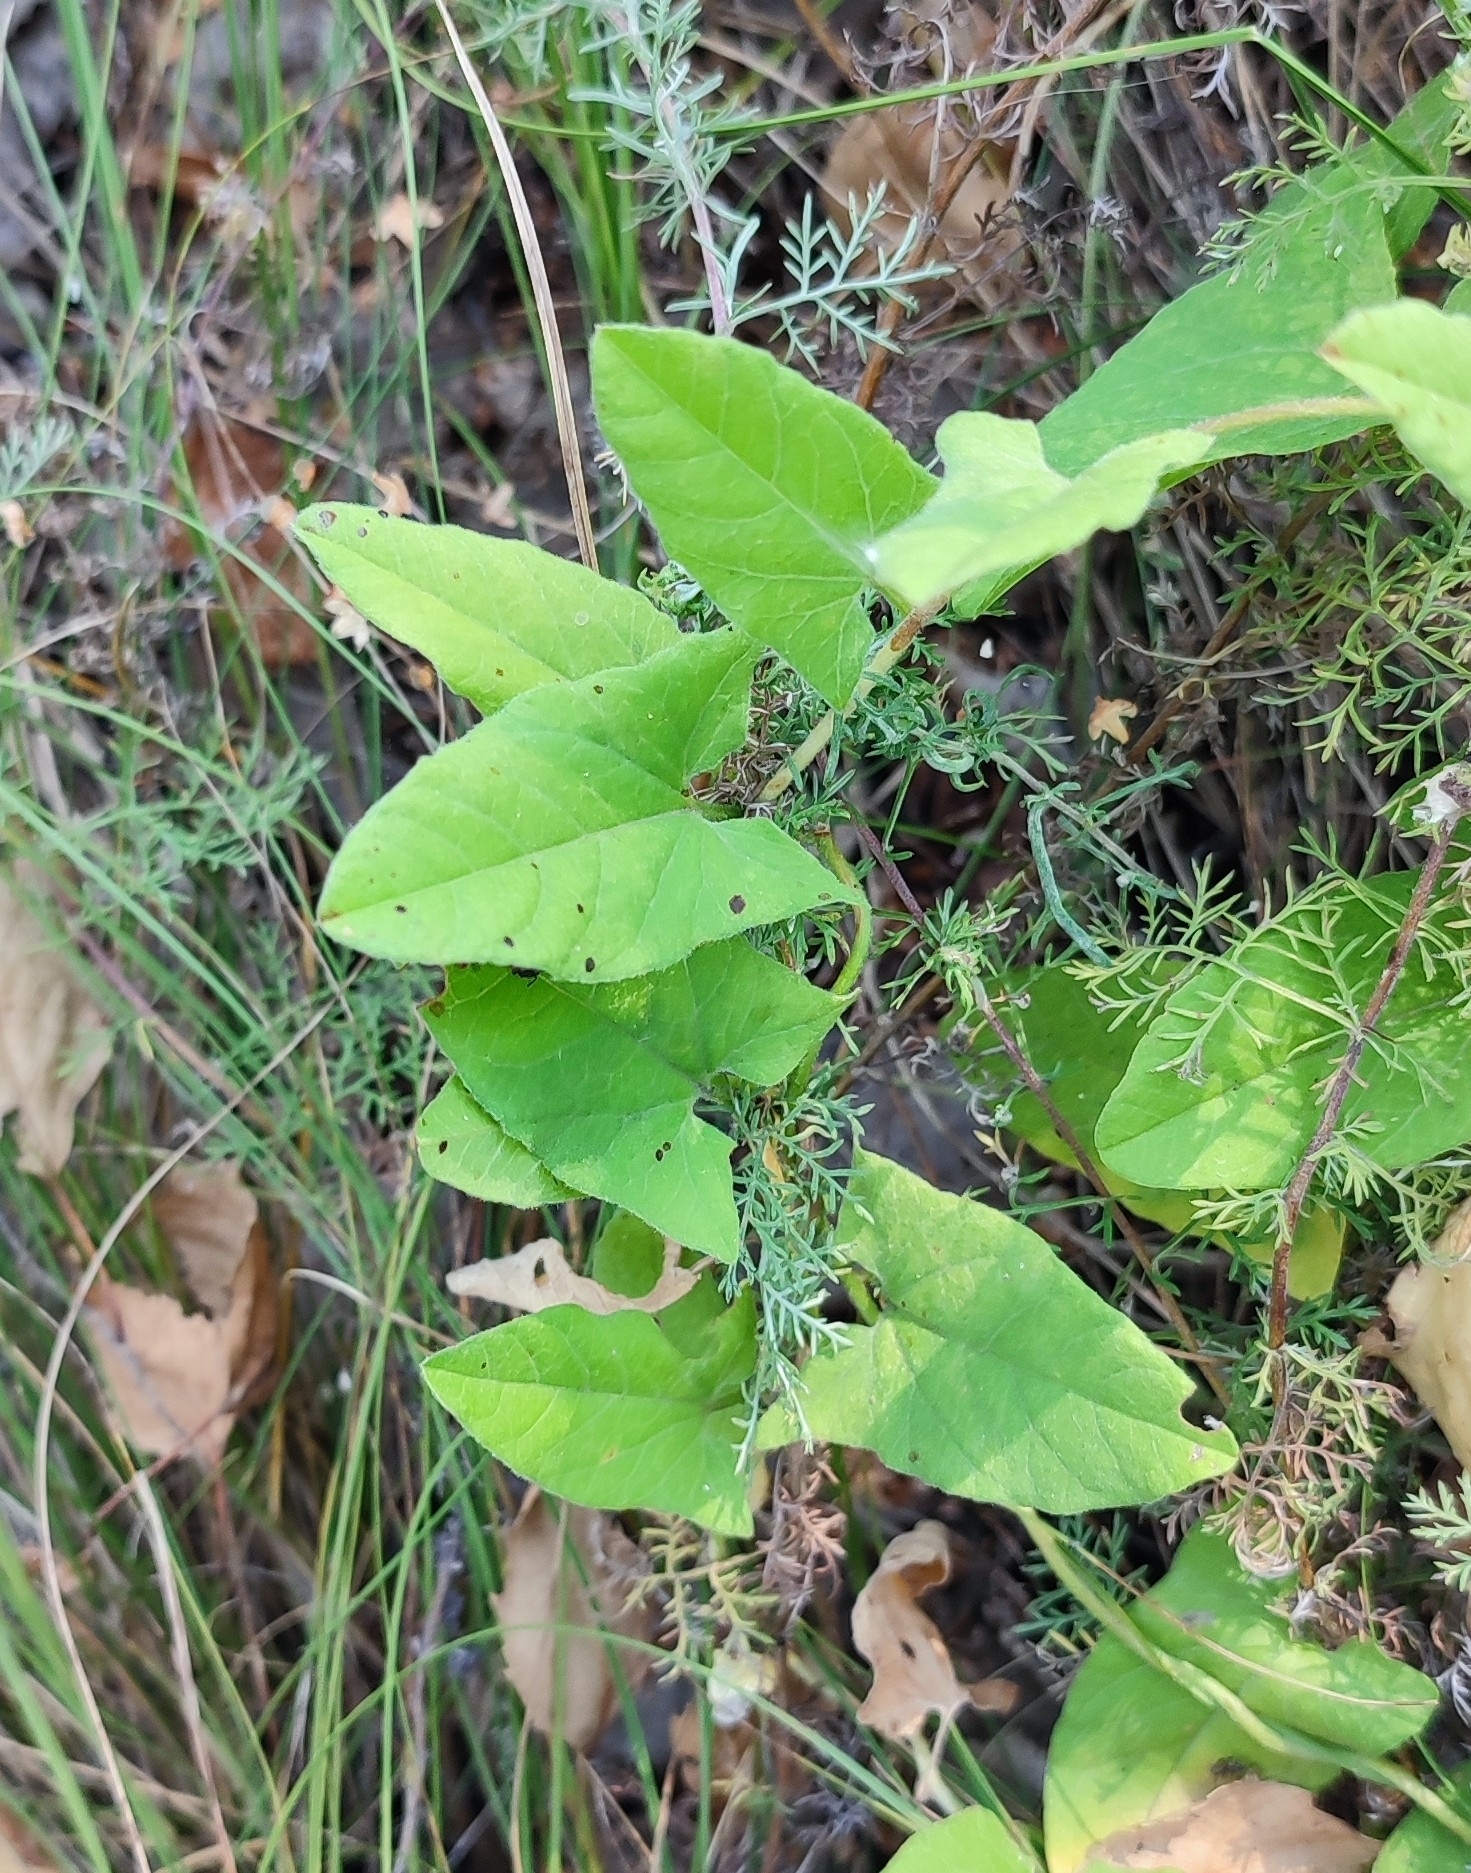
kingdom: Plantae
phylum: Tracheophyta
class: Magnoliopsida
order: Solanales
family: Convolvulaceae
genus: Convolvulus
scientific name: Convolvulus arvensis
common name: Field bindweed
